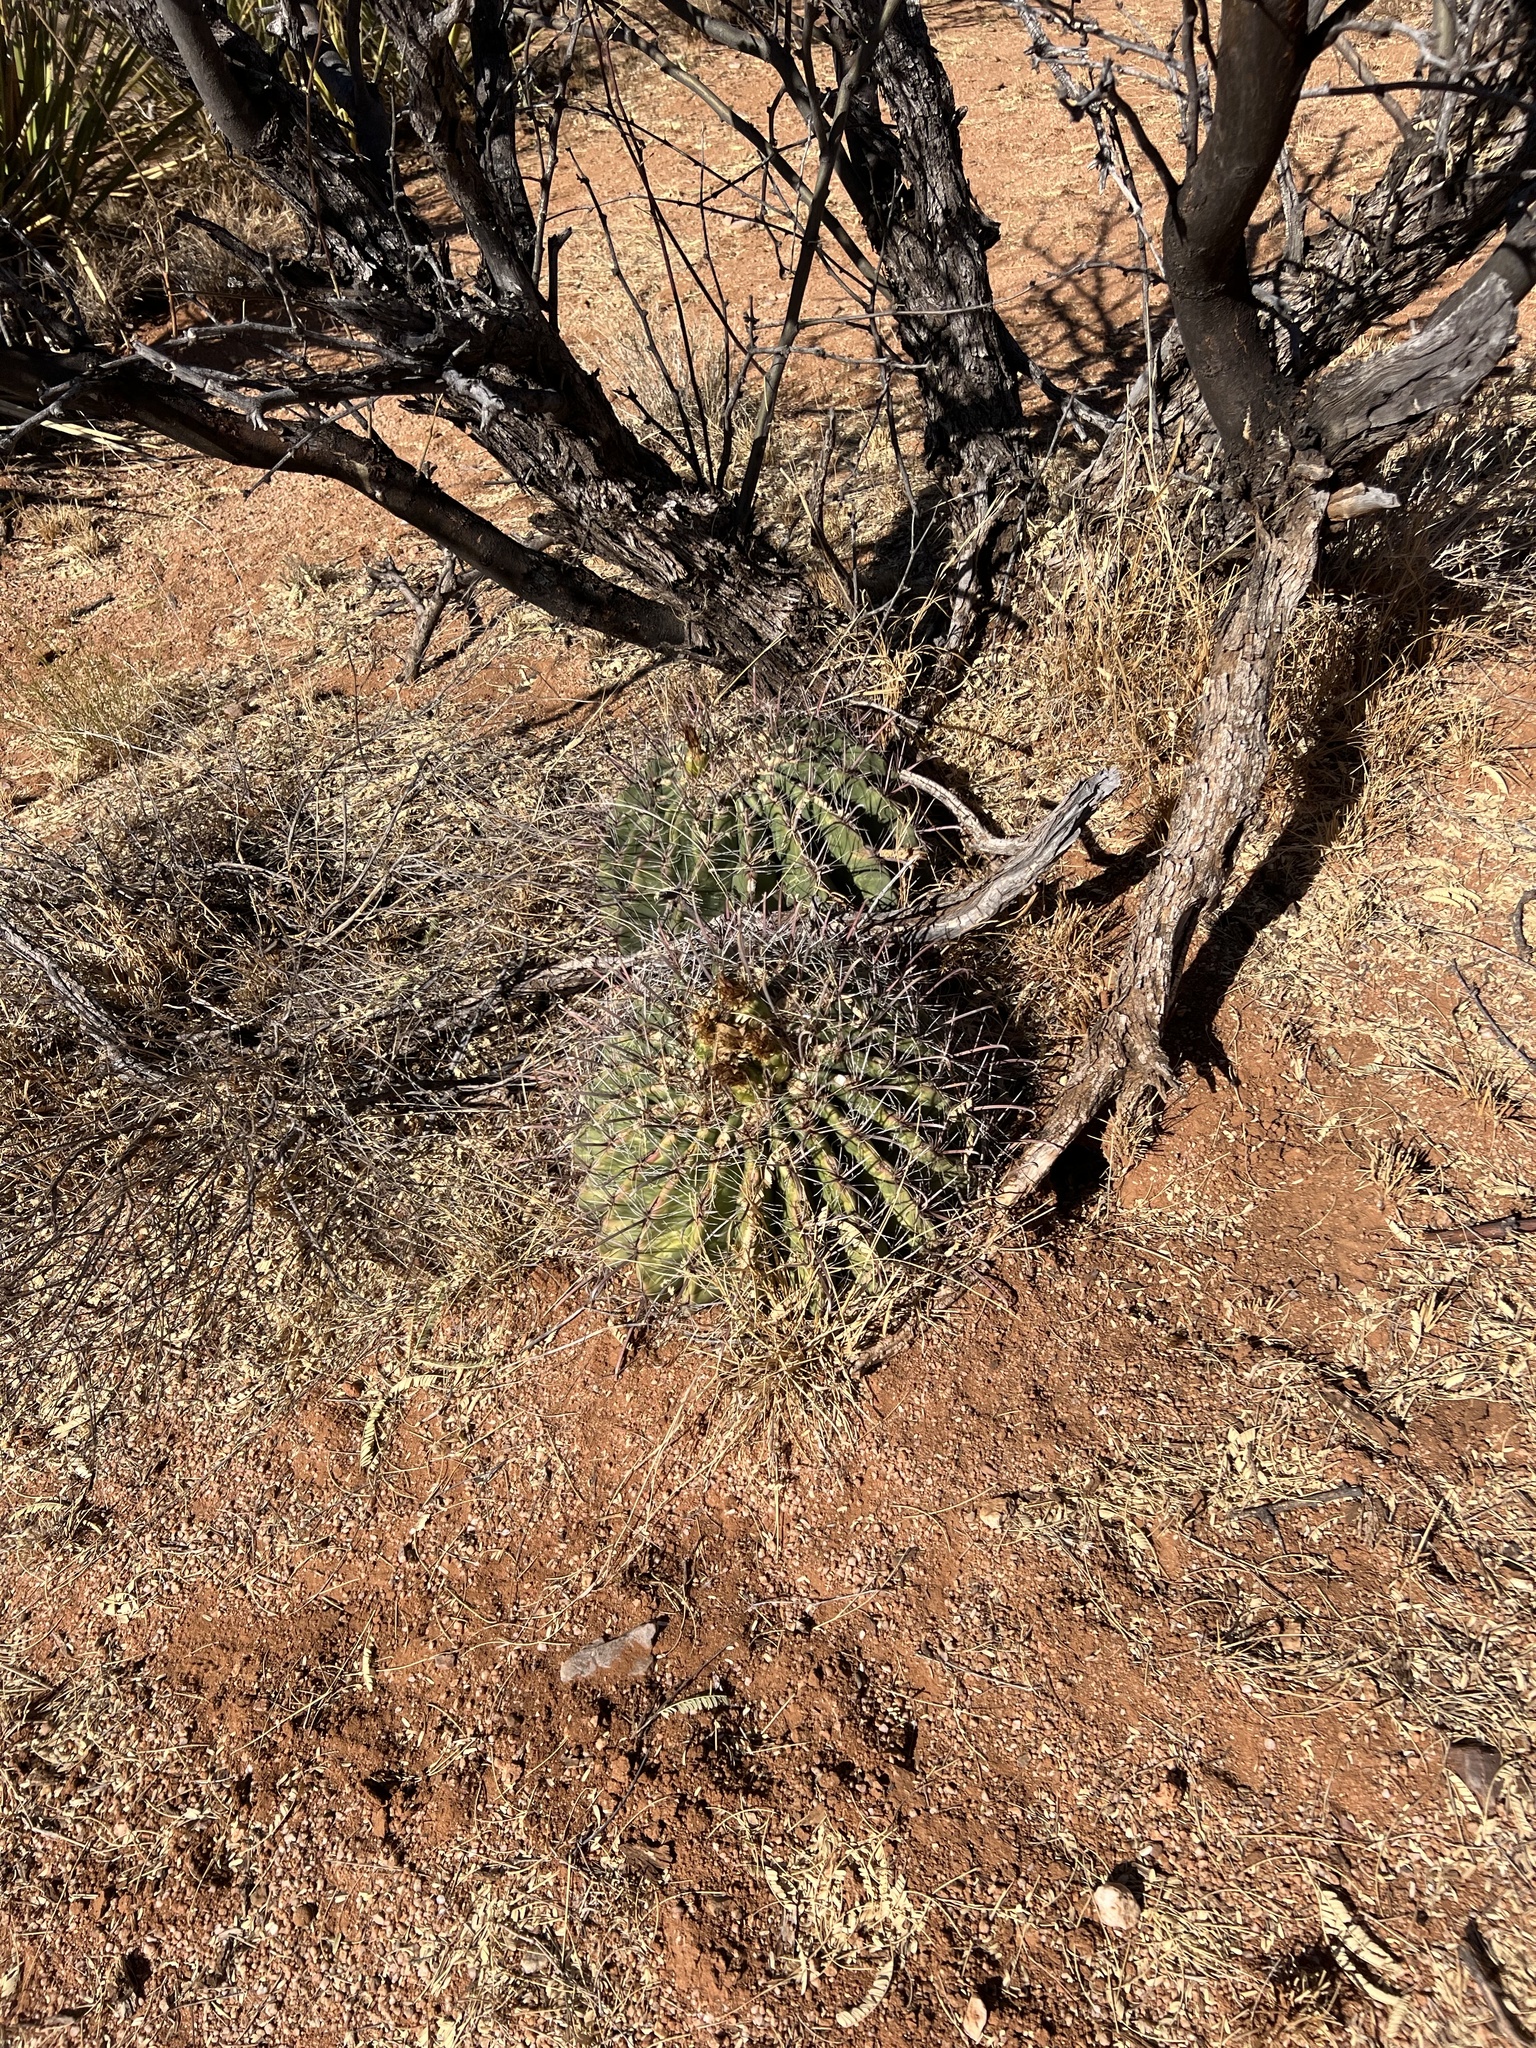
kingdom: Plantae
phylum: Tracheophyta
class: Magnoliopsida
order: Caryophyllales
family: Cactaceae
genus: Ferocactus
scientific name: Ferocactus wislizeni
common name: Candy barrel cactus
